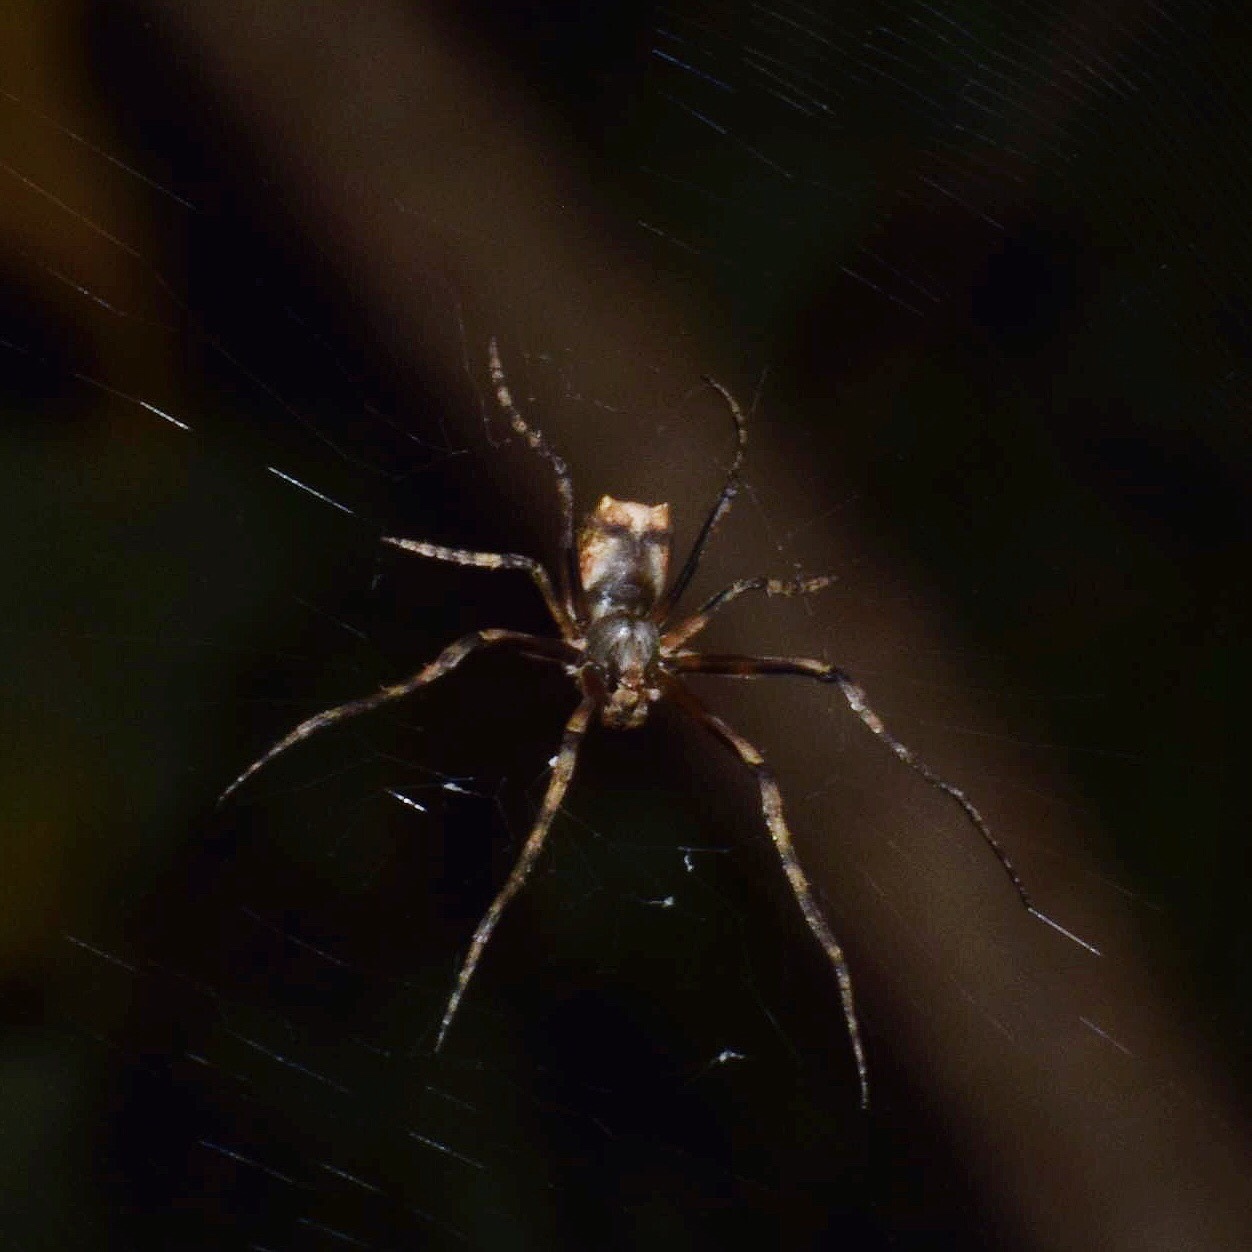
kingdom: Animalia
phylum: Arthropoda
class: Arachnida
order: Araneae
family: Araneidae
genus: Cyphalonotus
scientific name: Cyphalonotus larvatus
